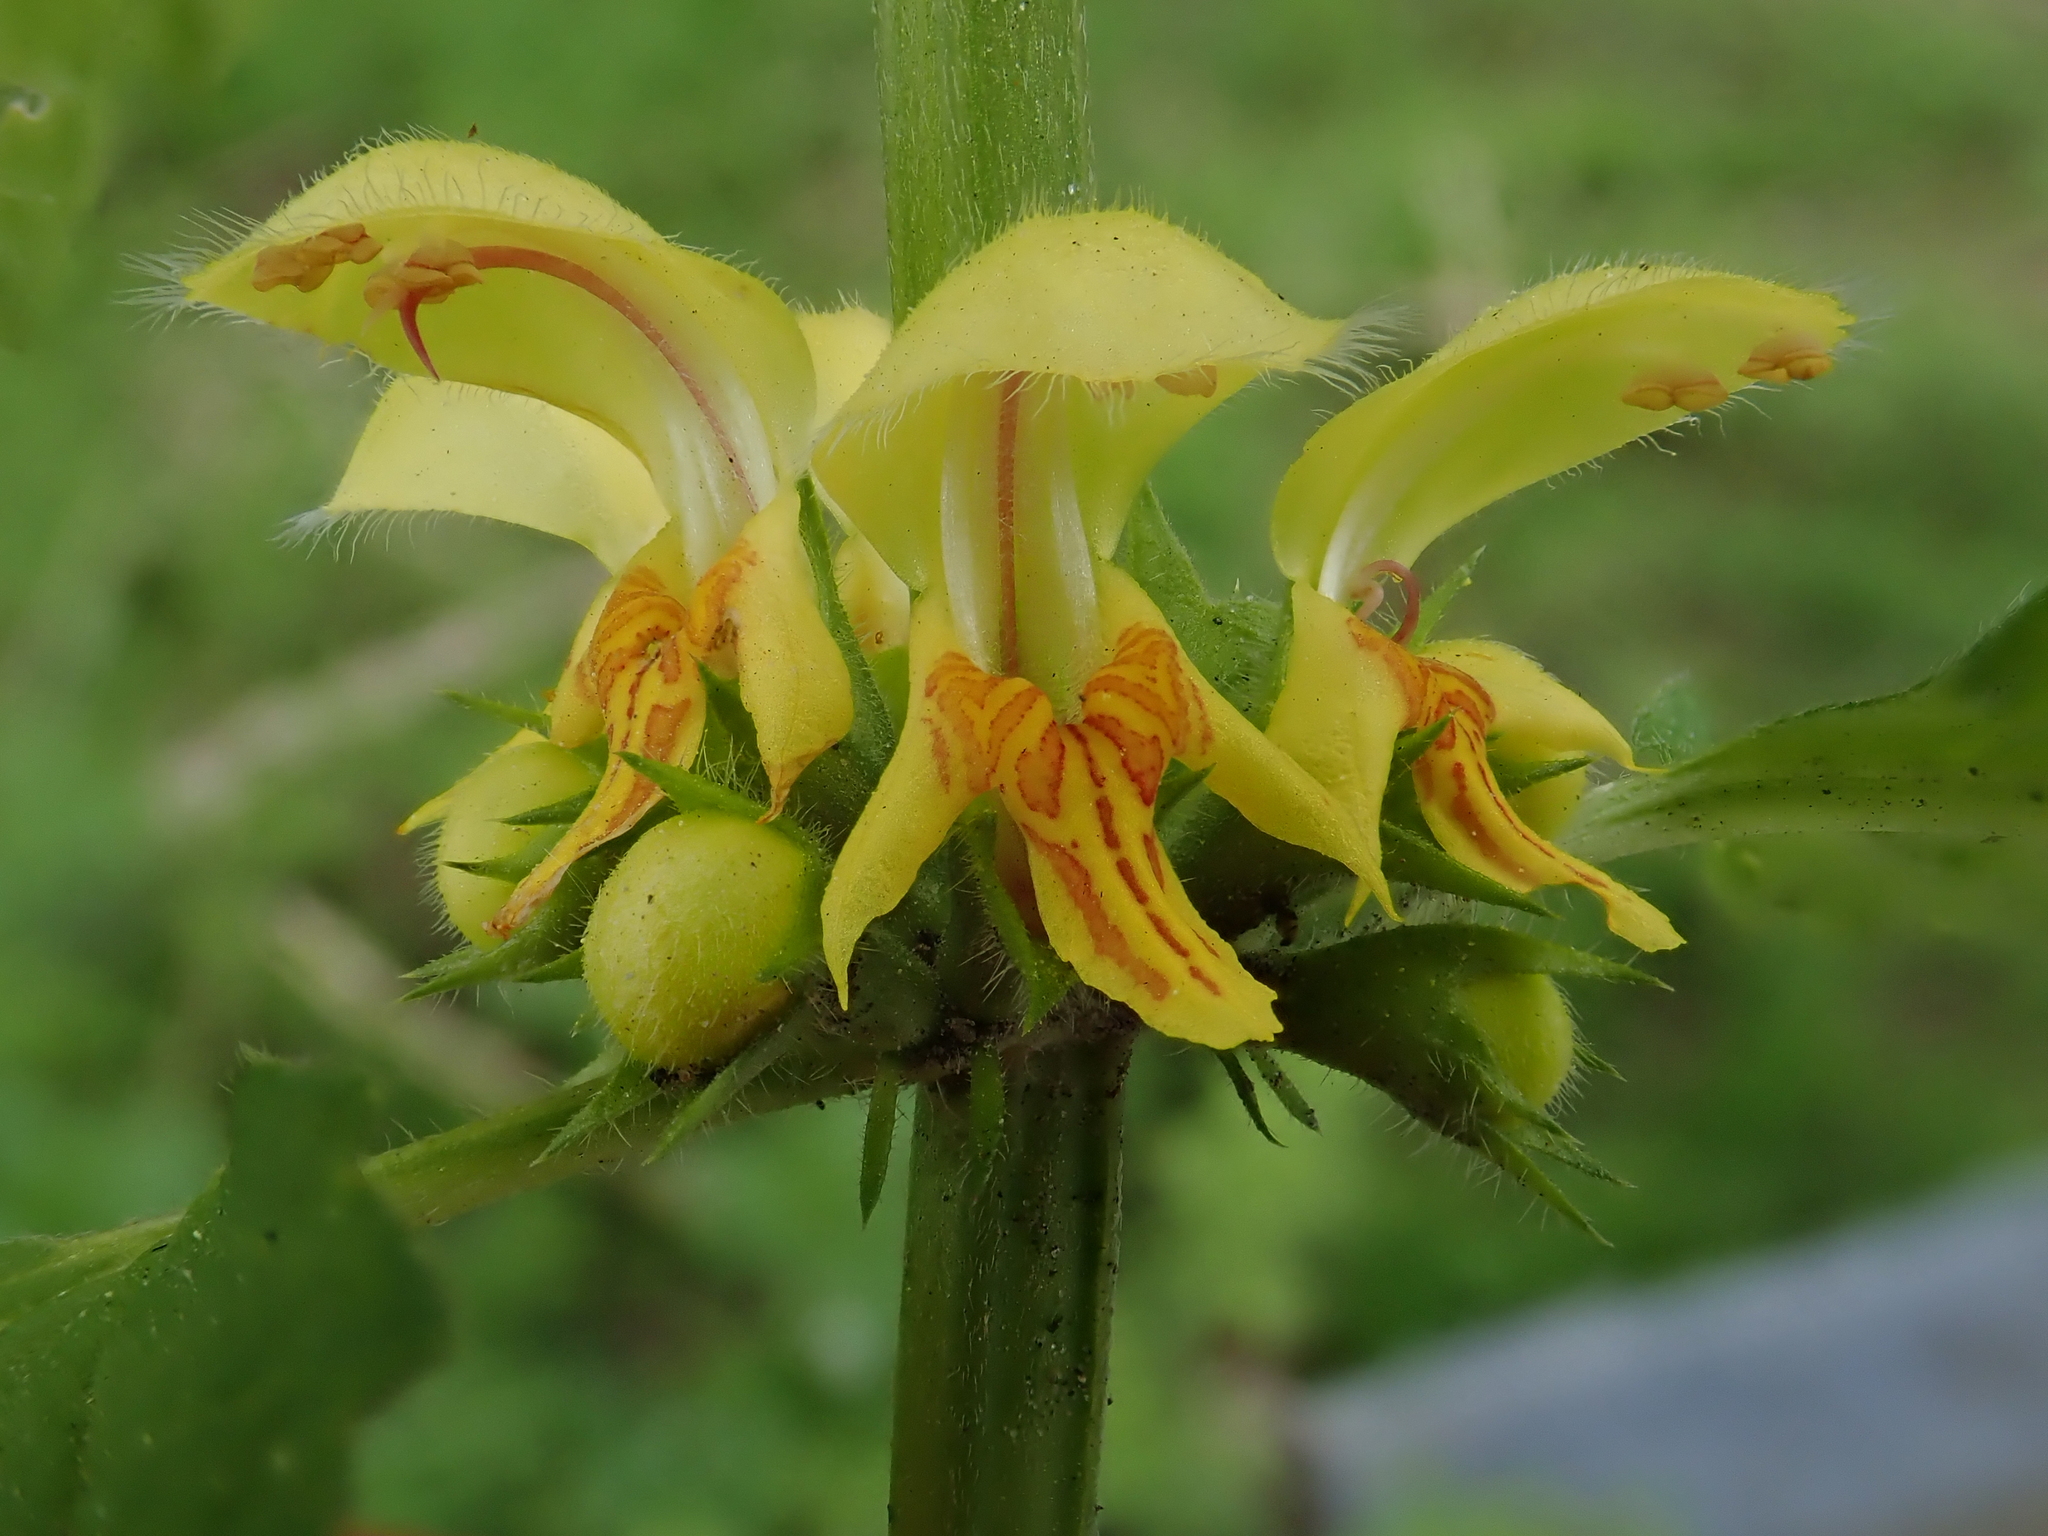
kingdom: Plantae
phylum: Tracheophyta
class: Magnoliopsida
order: Lamiales
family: Lamiaceae
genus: Lamium
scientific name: Lamium galeobdolon
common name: Yellow archangel
